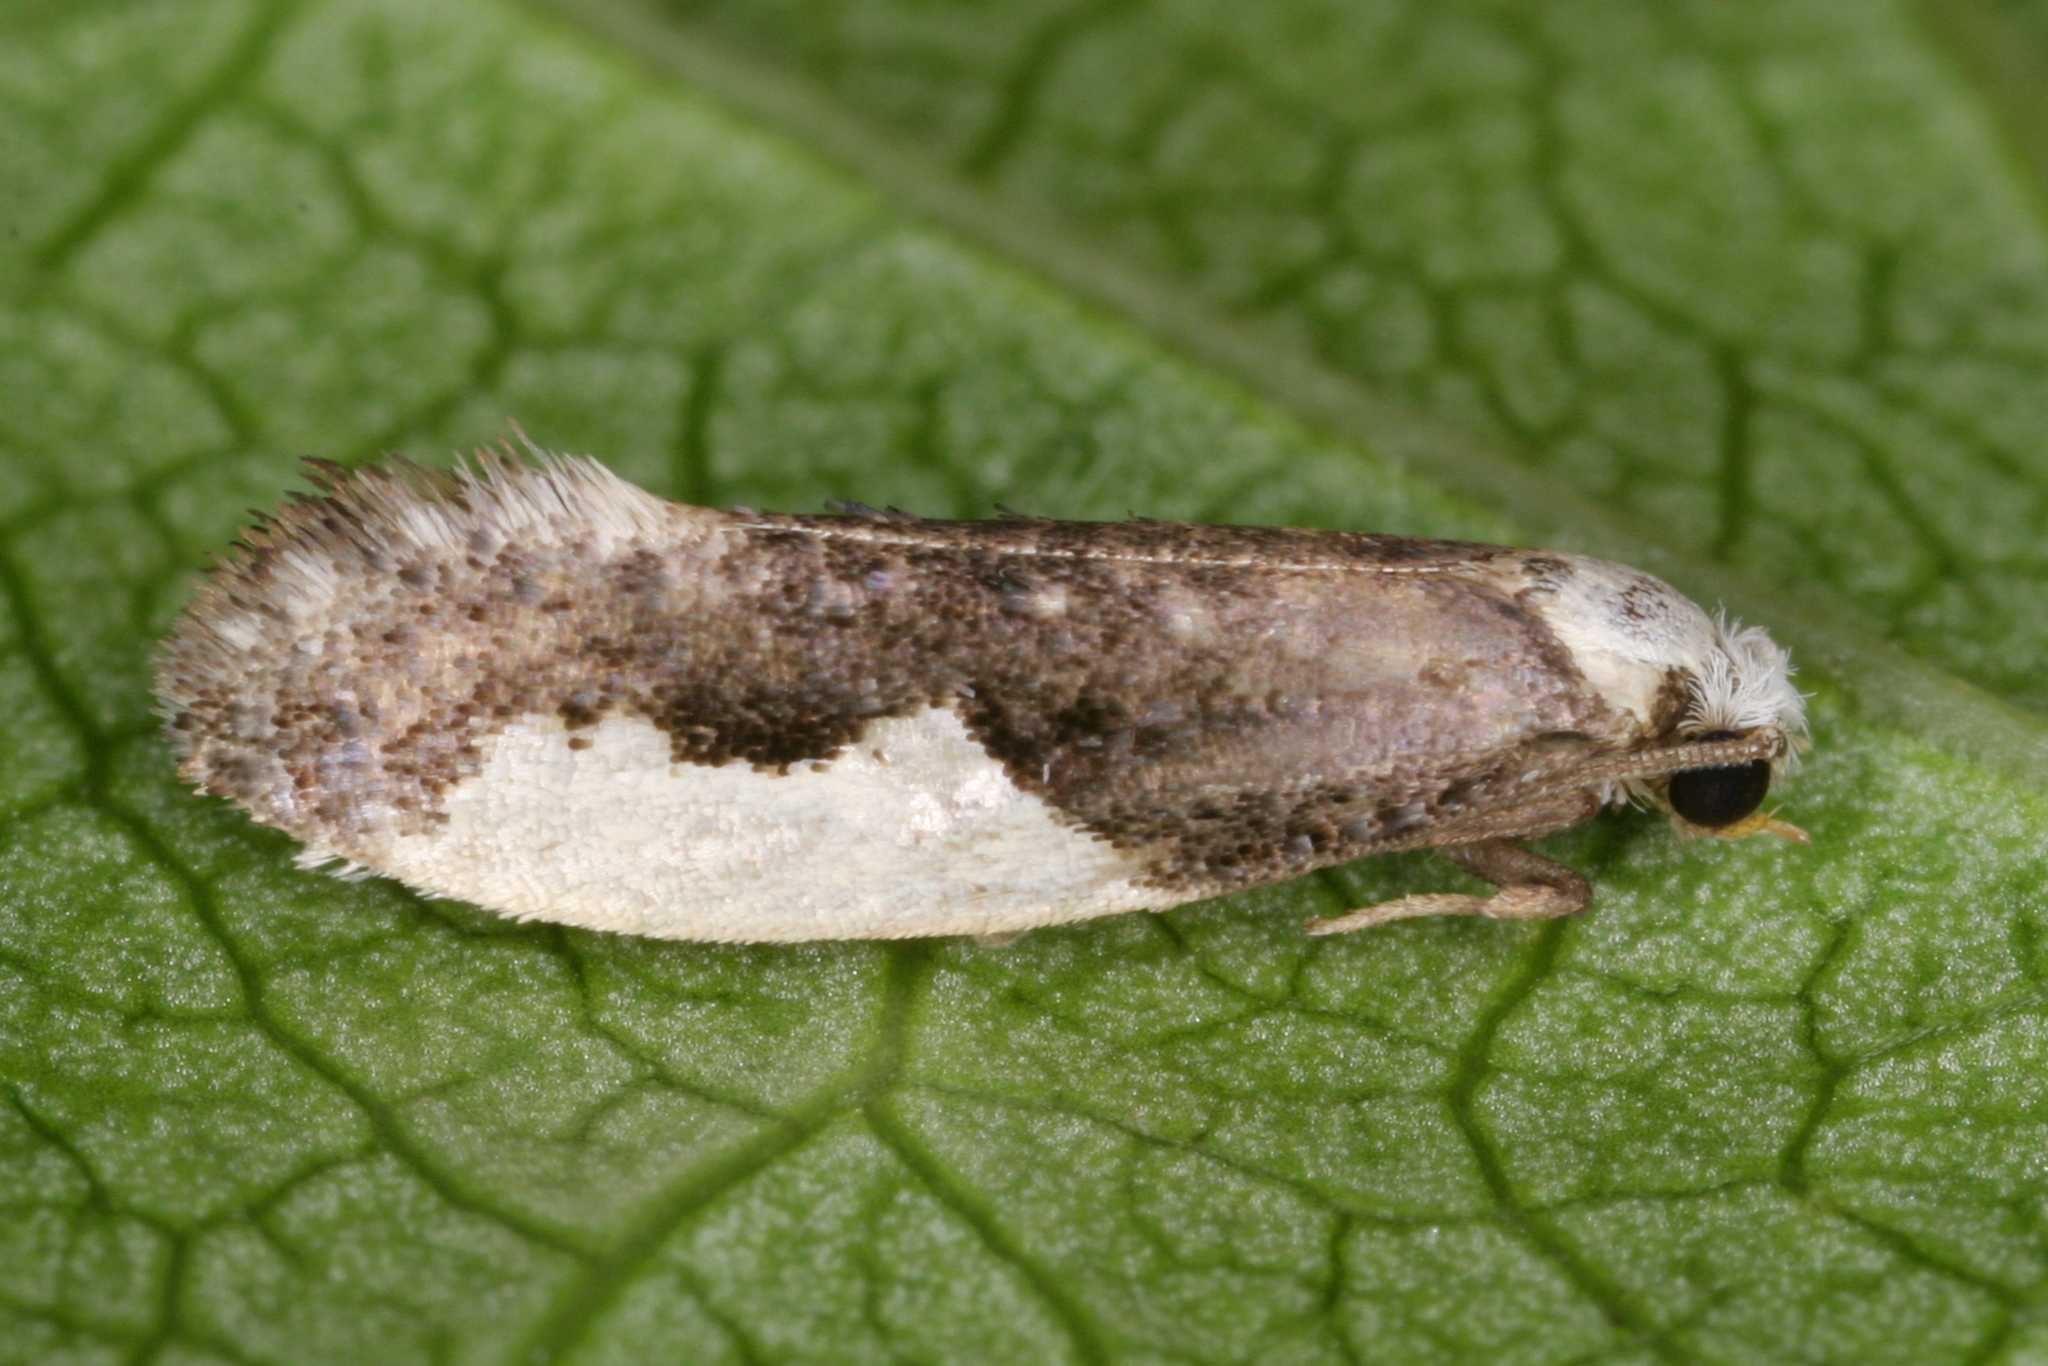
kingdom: Animalia
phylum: Arthropoda
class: Insecta
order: Lepidoptera
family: Tineidae
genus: Monopis
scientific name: Monopis monachella
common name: Moth
